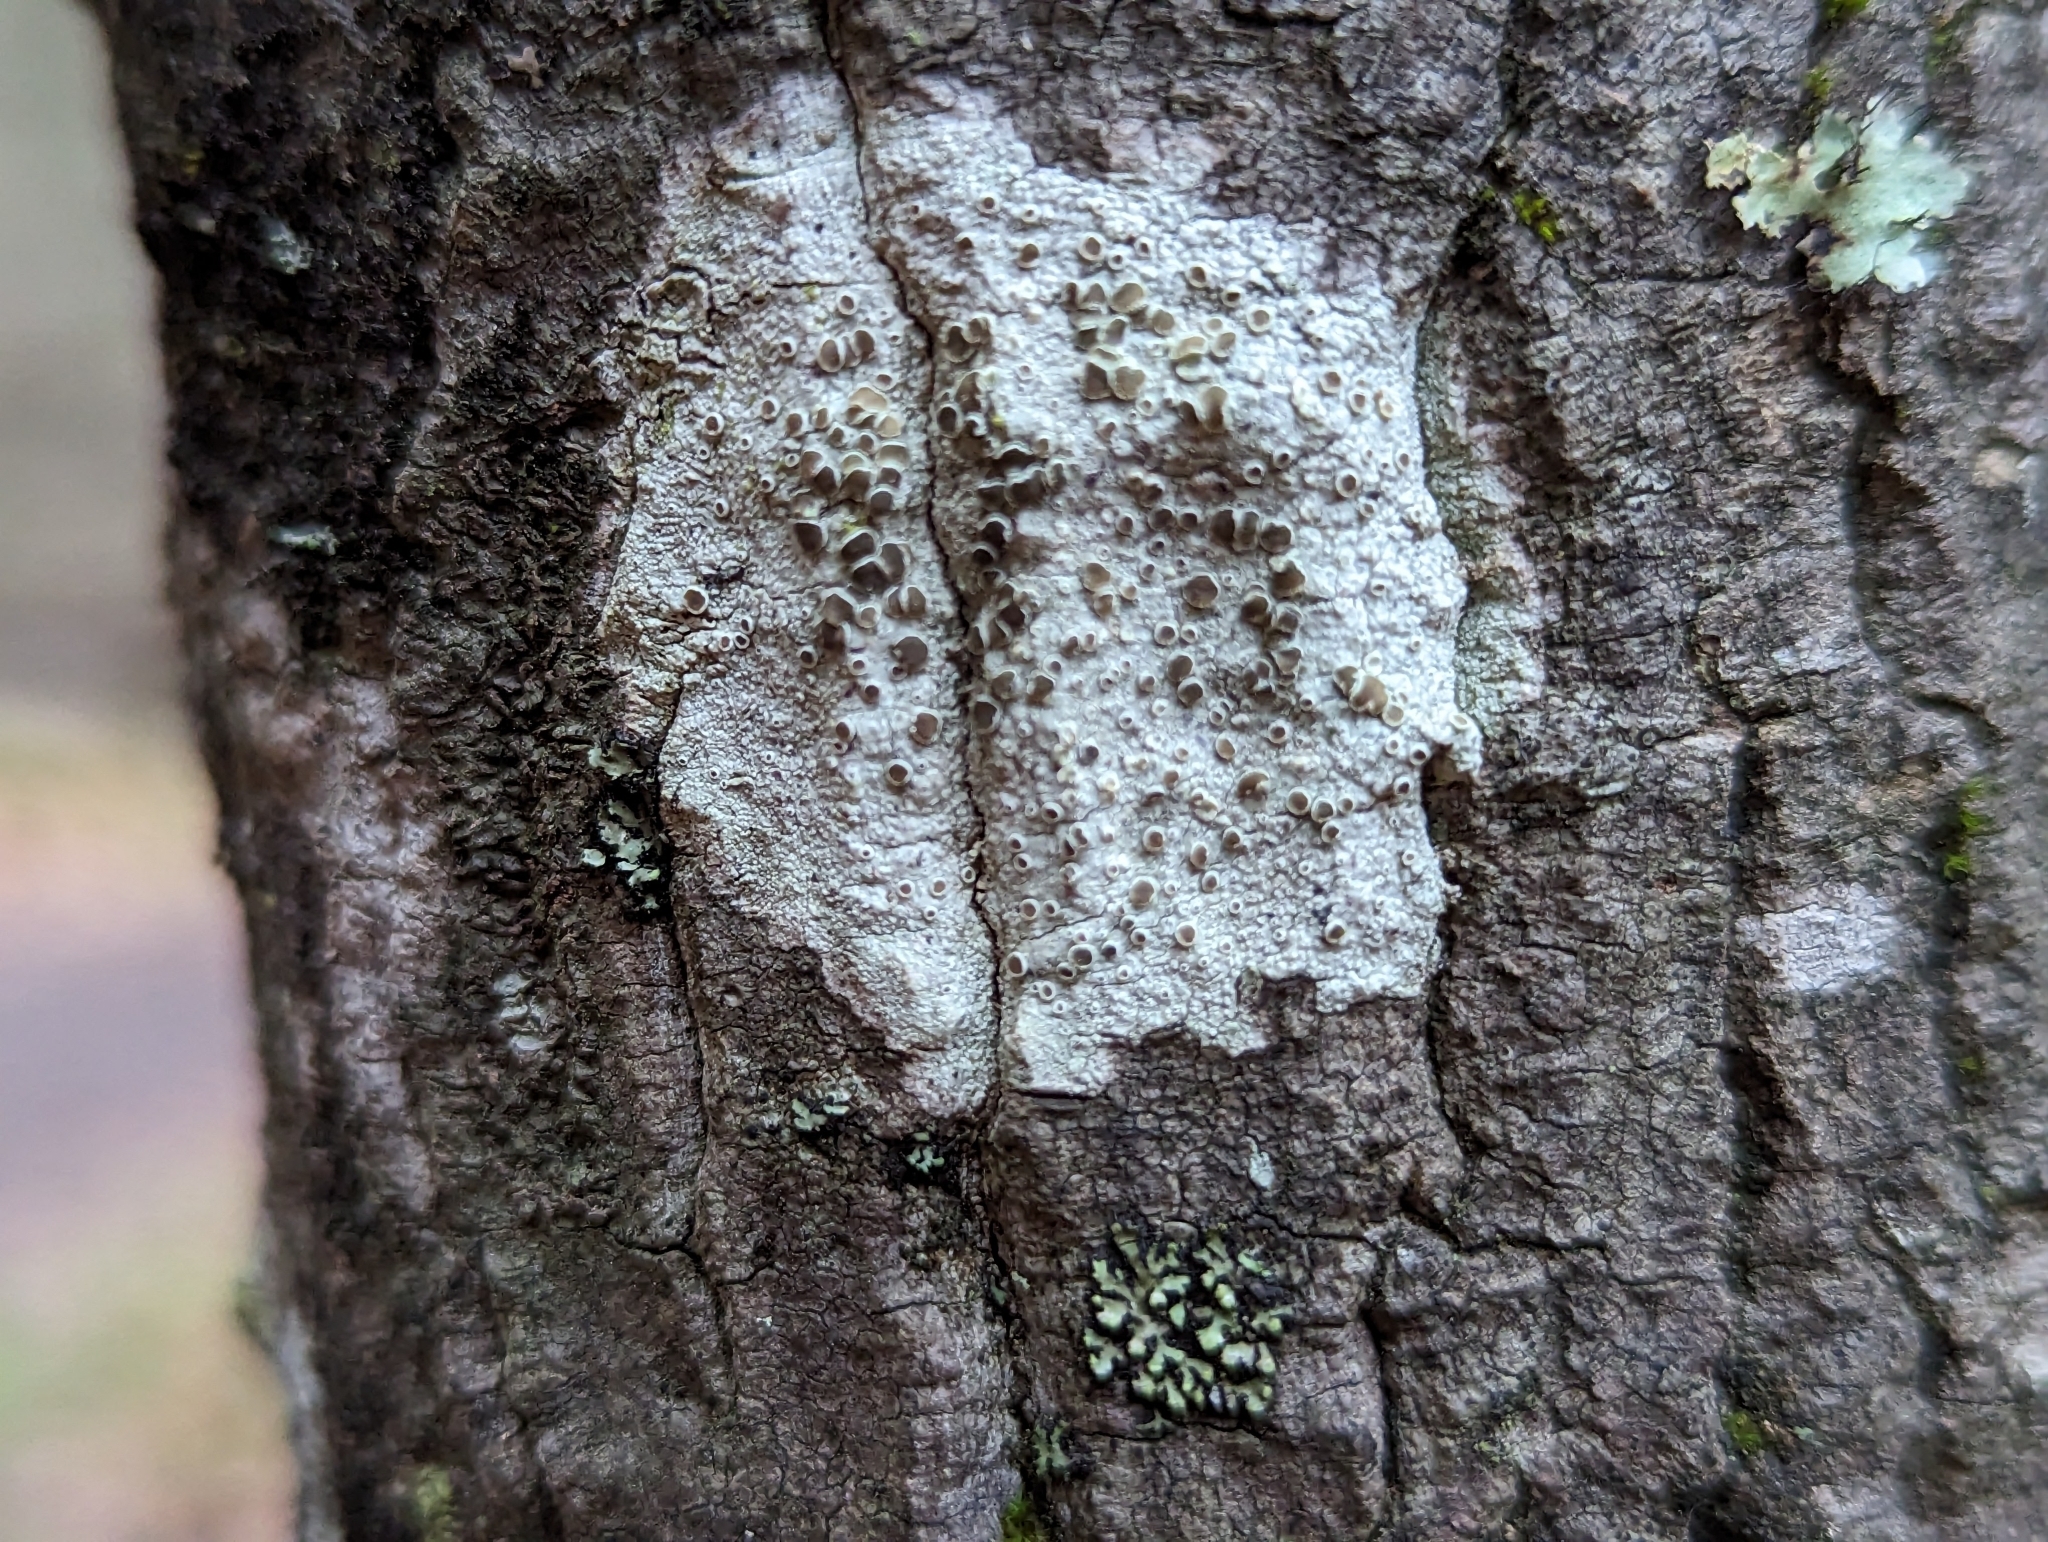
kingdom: Fungi
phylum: Ascomycota
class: Lecanoromycetes
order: Lecanorales
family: Lecanoraceae
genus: Lecanora
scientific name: Lecanora hybocarpa
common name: Bumpy rim-lichen
